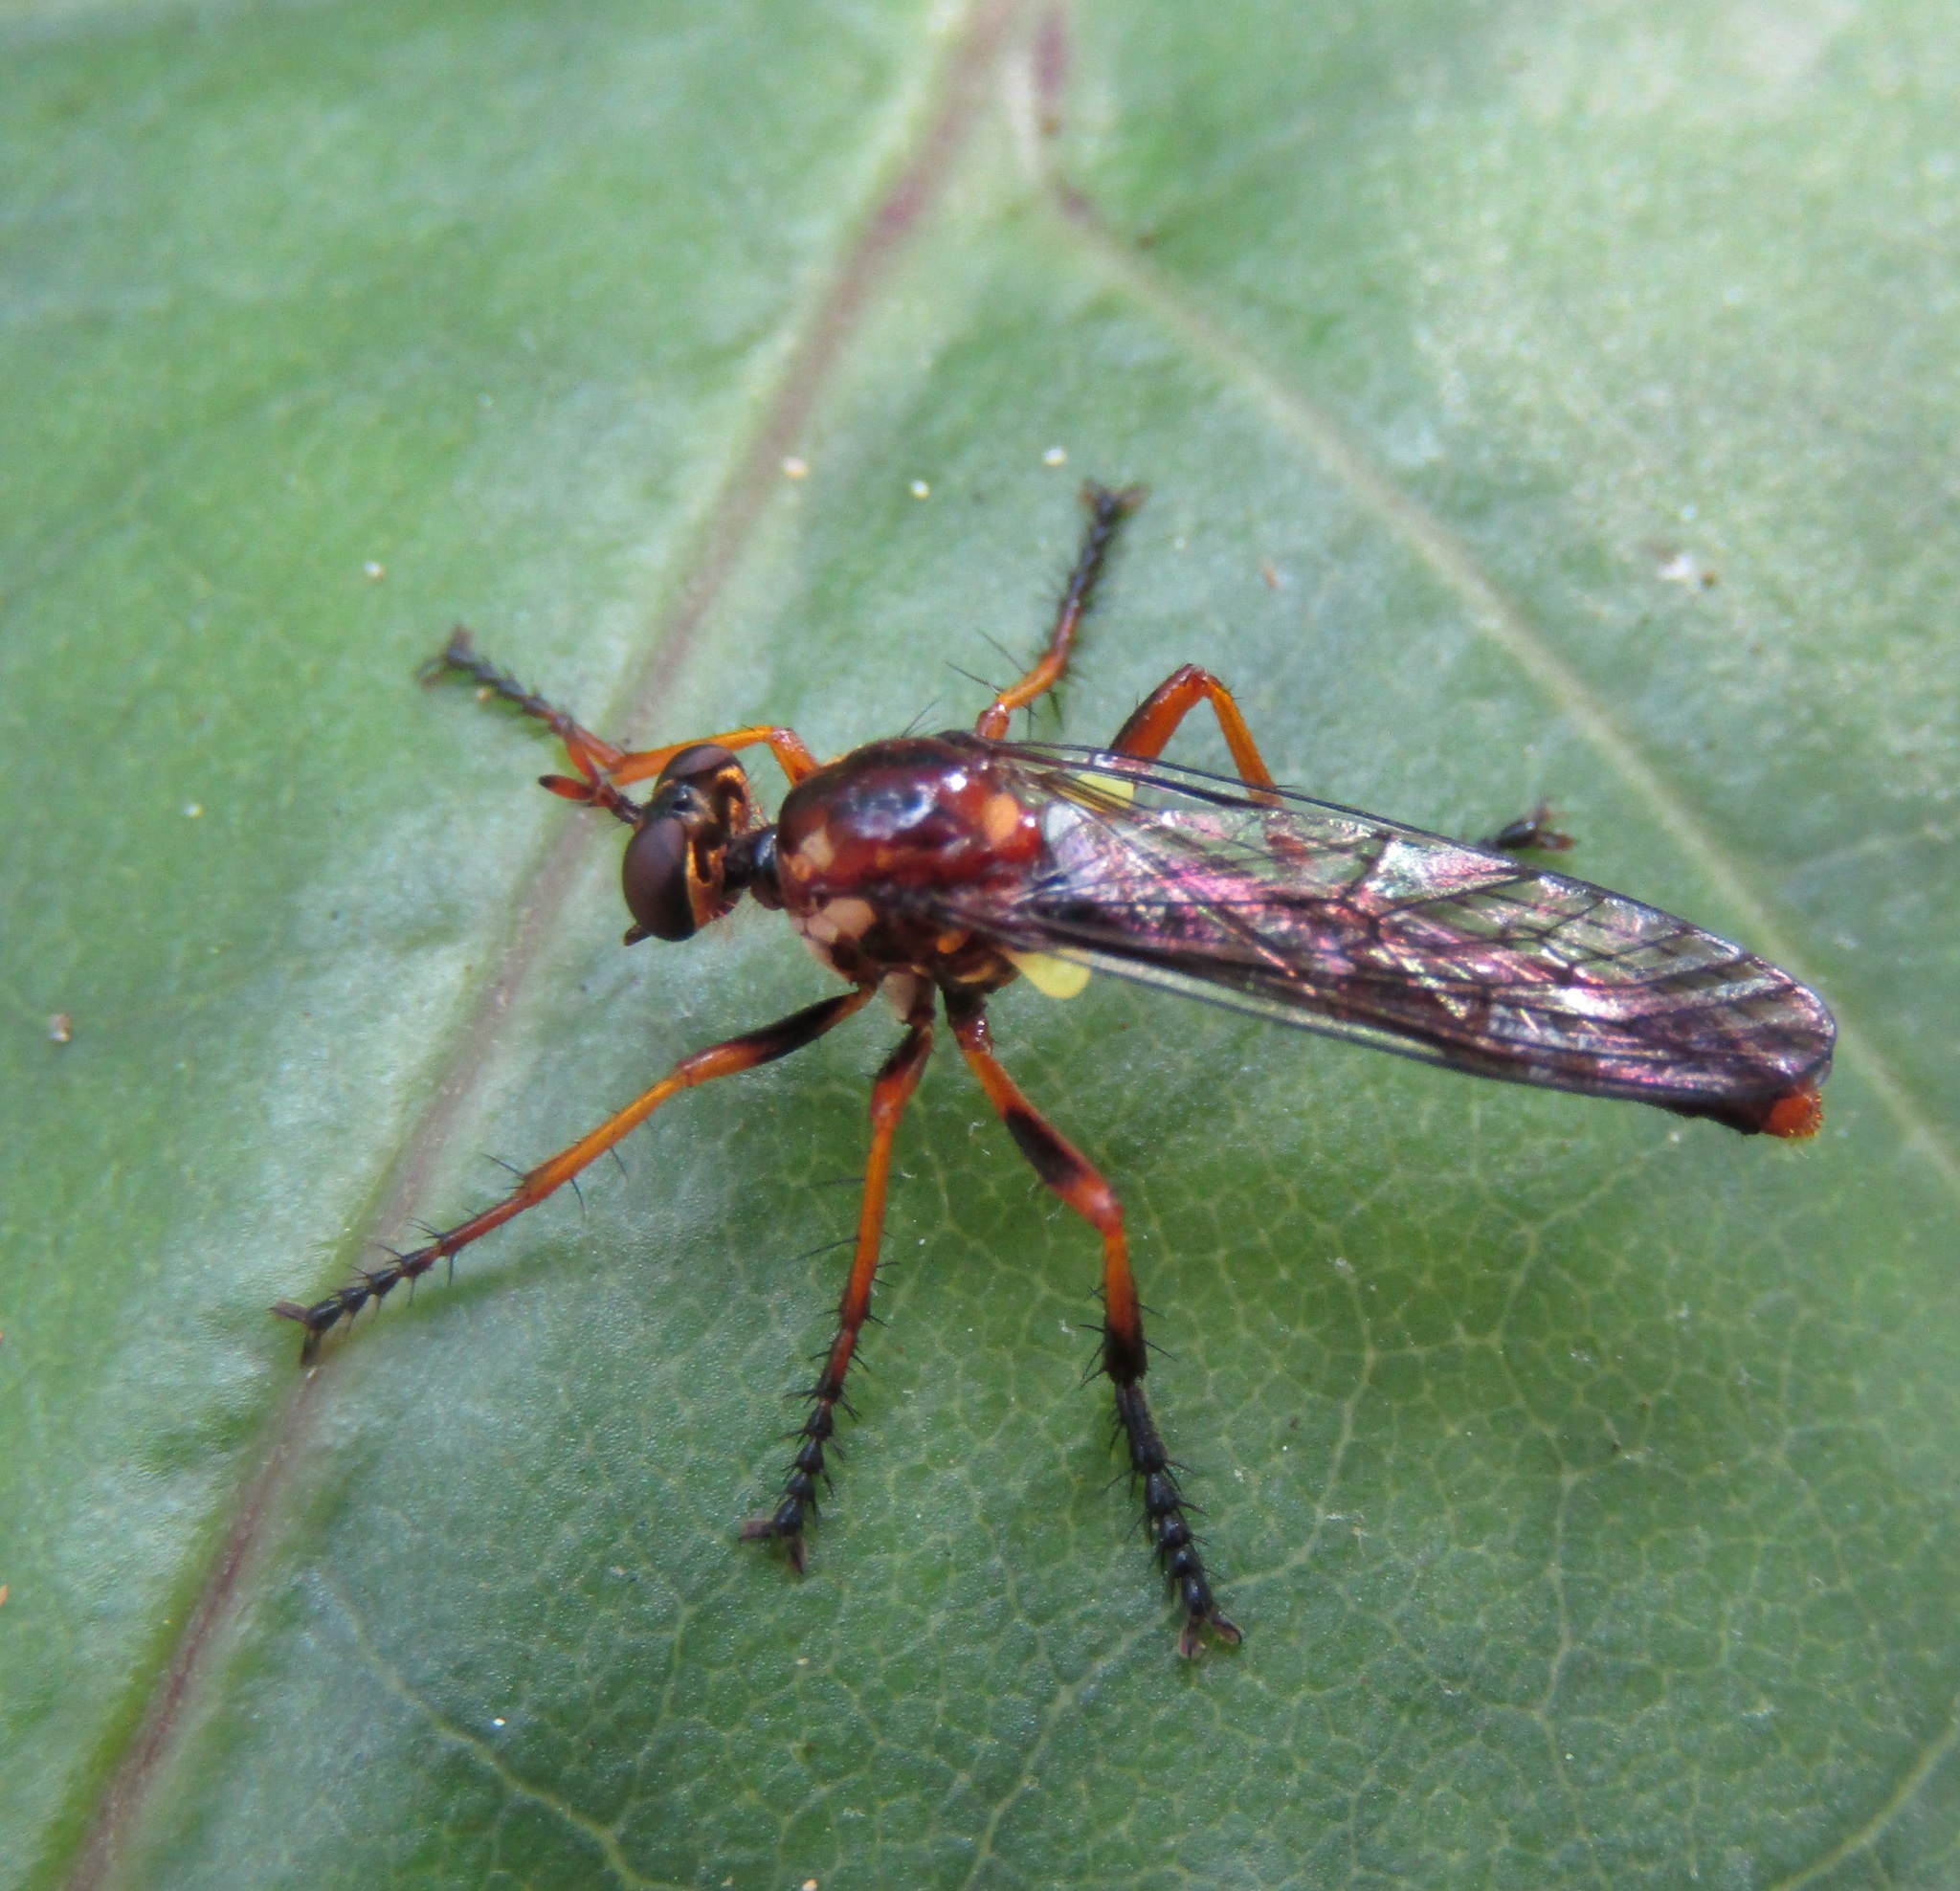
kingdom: Animalia
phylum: Arthropoda
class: Insecta
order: Diptera
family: Asilidae
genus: Saropogon
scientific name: Saropogon antipodus
